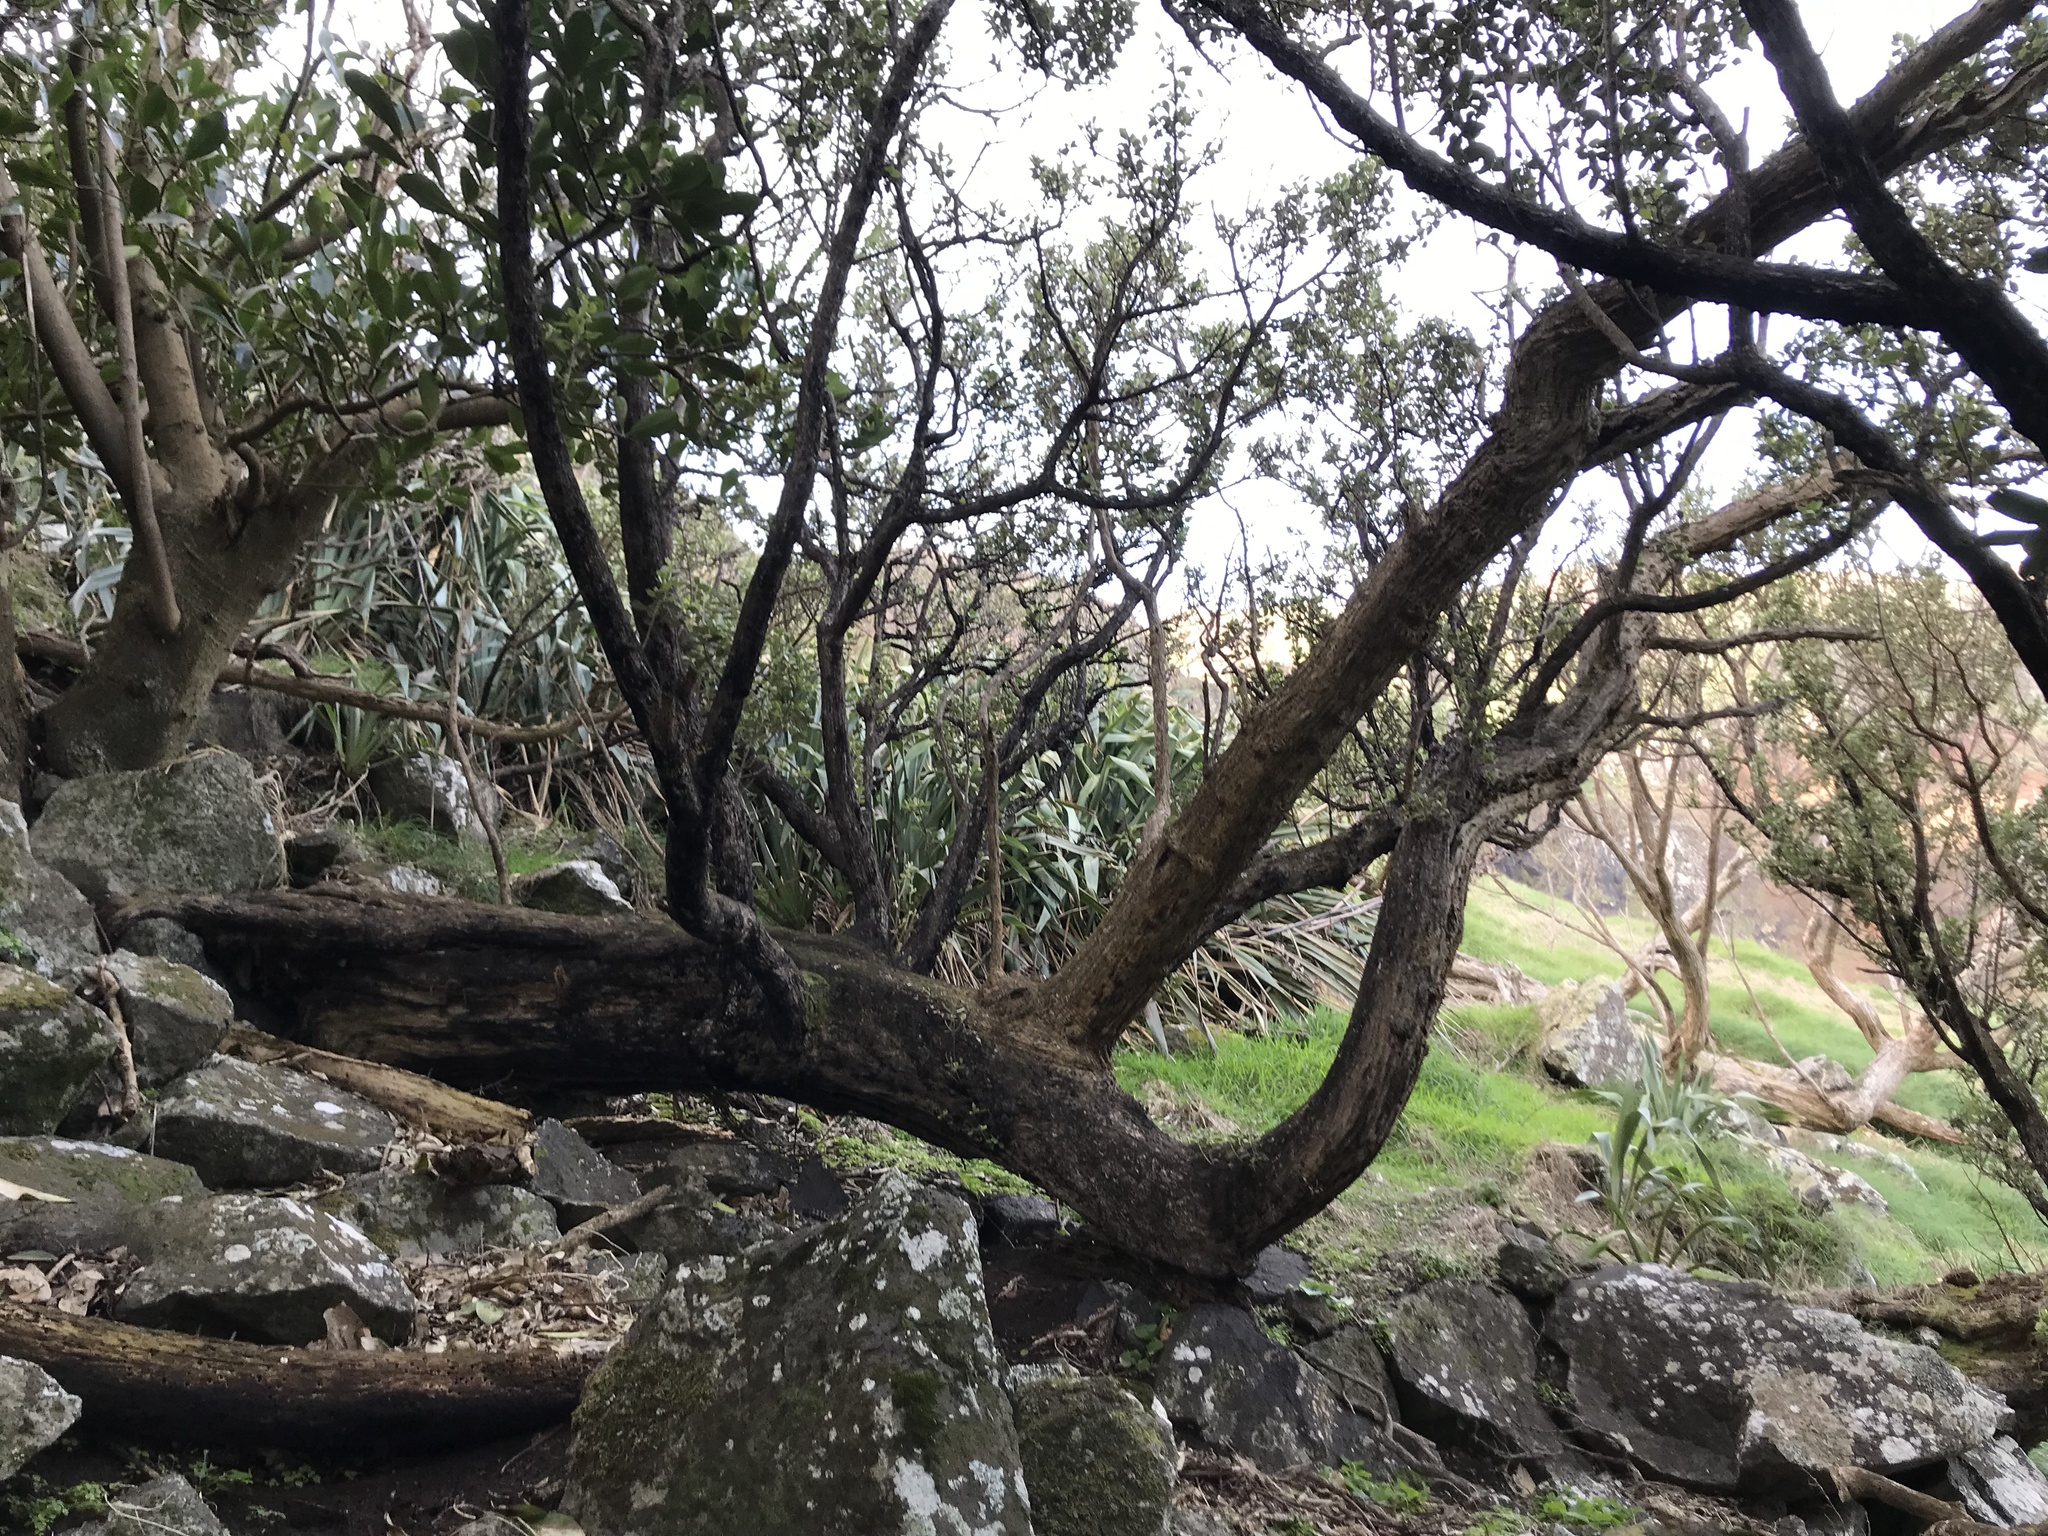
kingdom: Plantae
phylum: Tracheophyta
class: Magnoliopsida
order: Asterales
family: Asteraceae
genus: Olearia
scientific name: Olearia traversiorum
